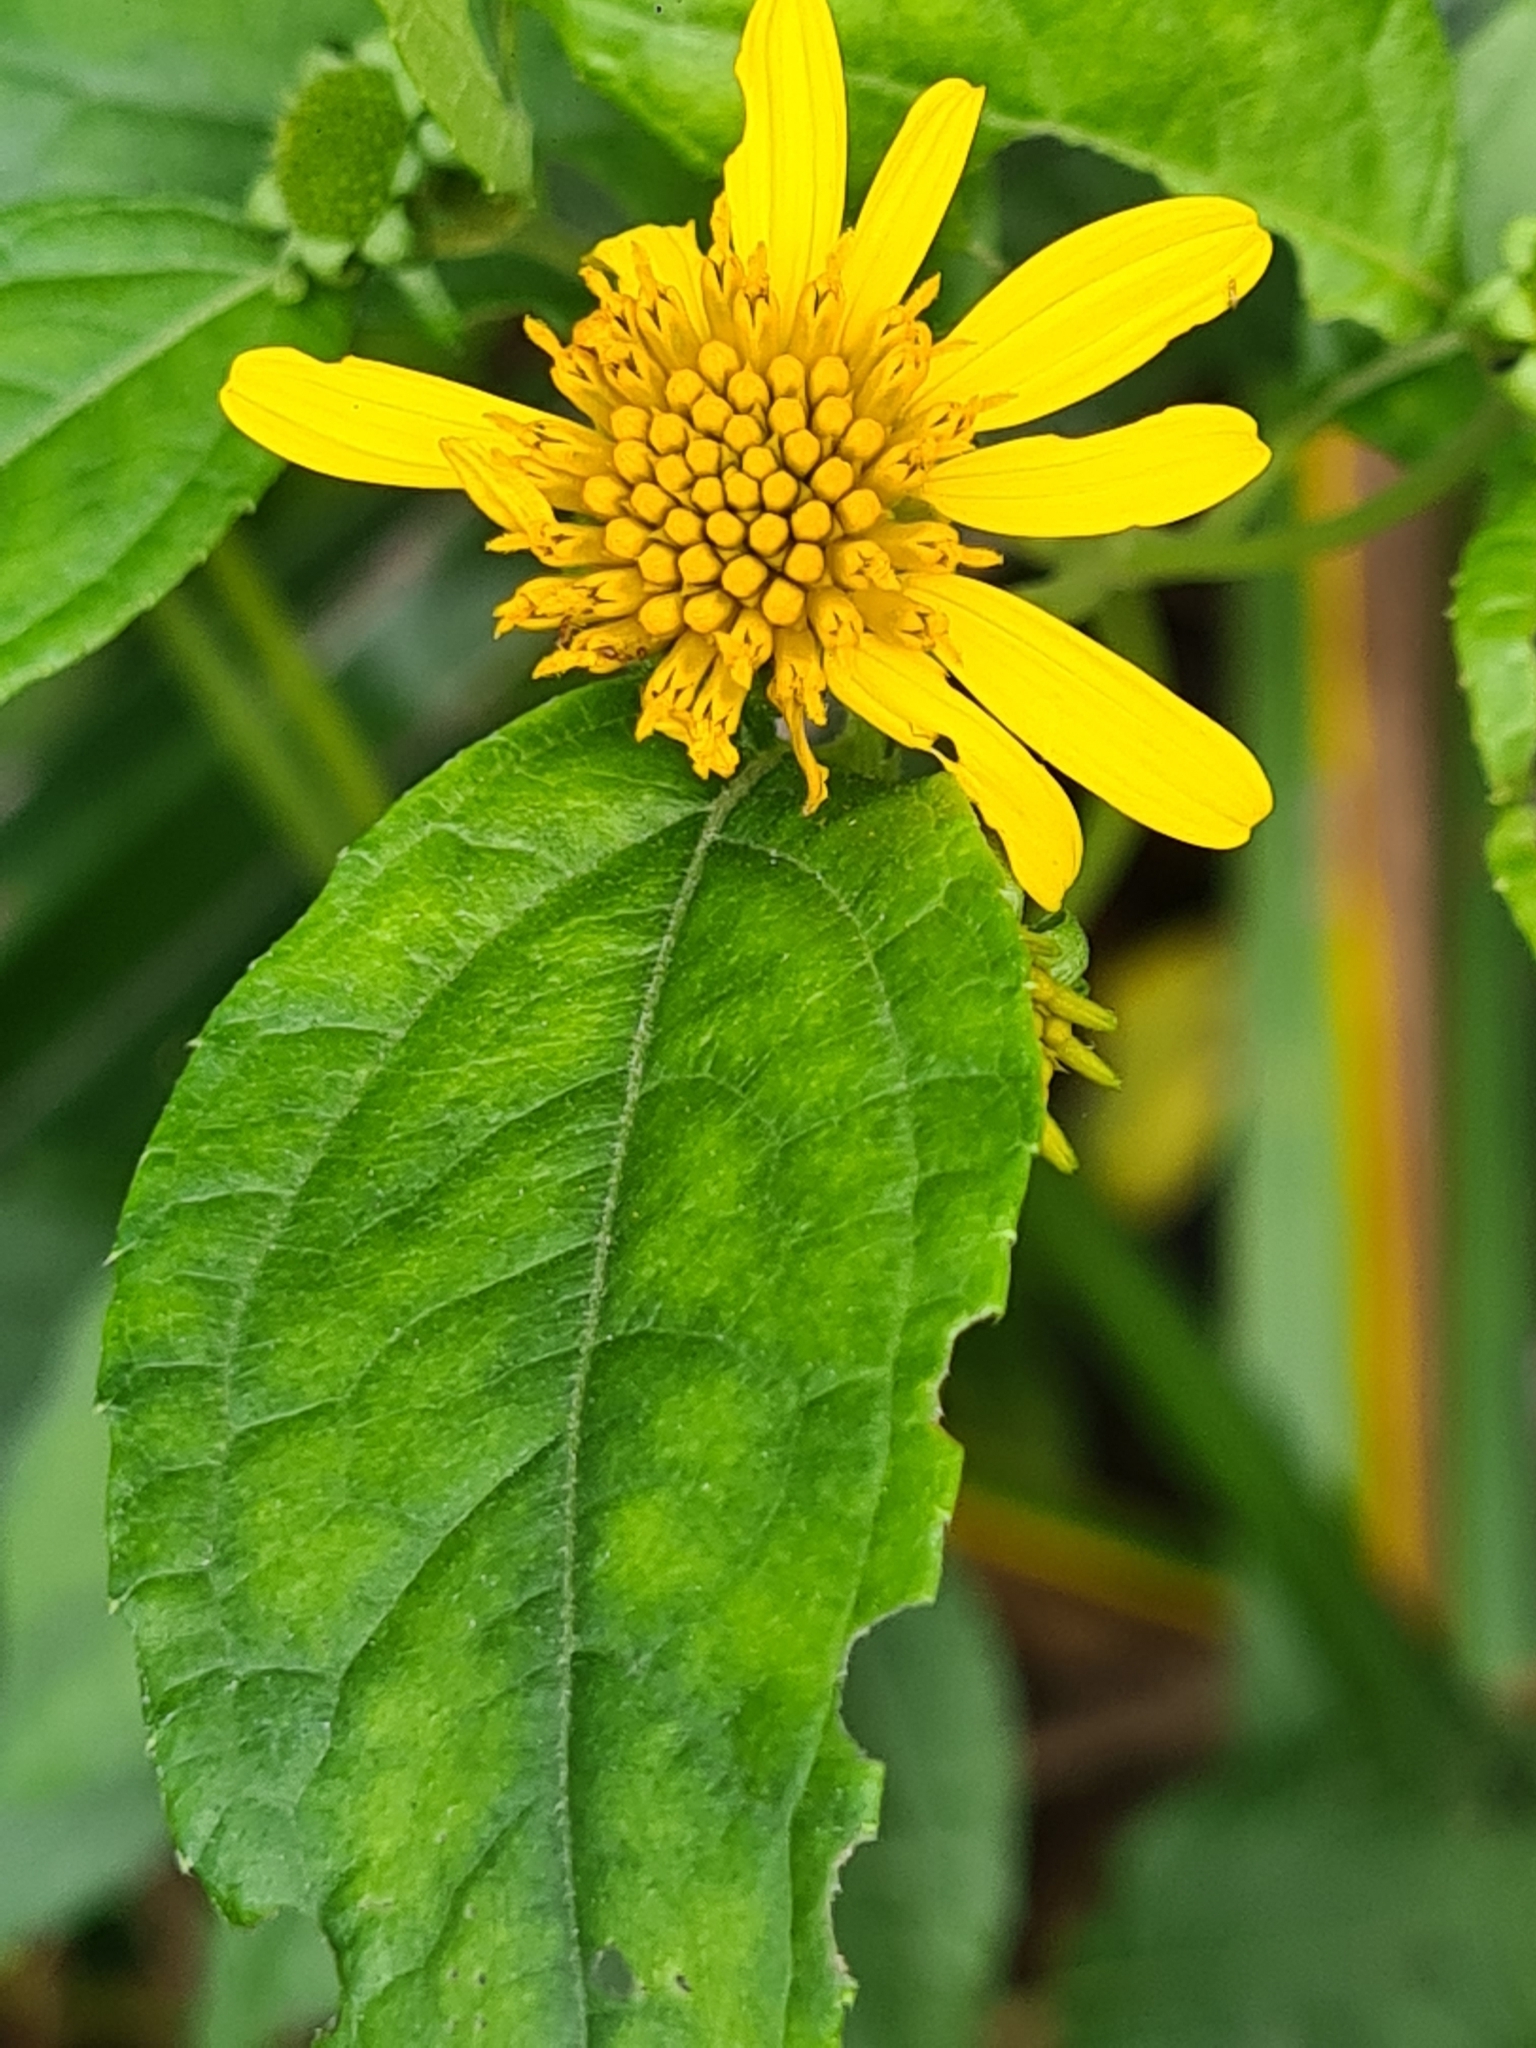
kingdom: Plantae
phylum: Tracheophyta
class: Magnoliopsida
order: Asterales
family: Asteraceae
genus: Tilesia
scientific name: Tilesia baccata
